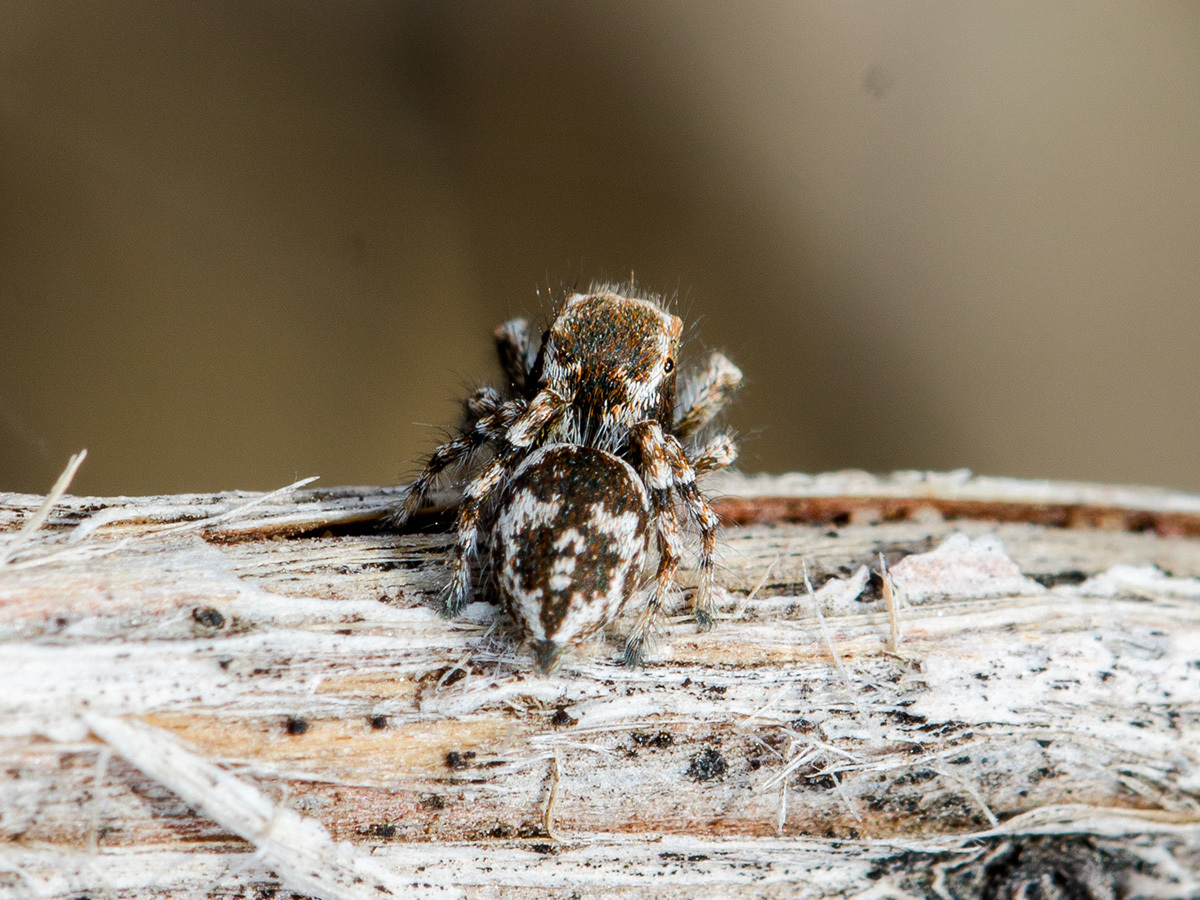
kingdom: Animalia
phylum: Arthropoda
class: Arachnida
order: Araneae
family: Salticidae
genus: Pseudomogrus
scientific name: Pseudomogrus pseudovalidus
